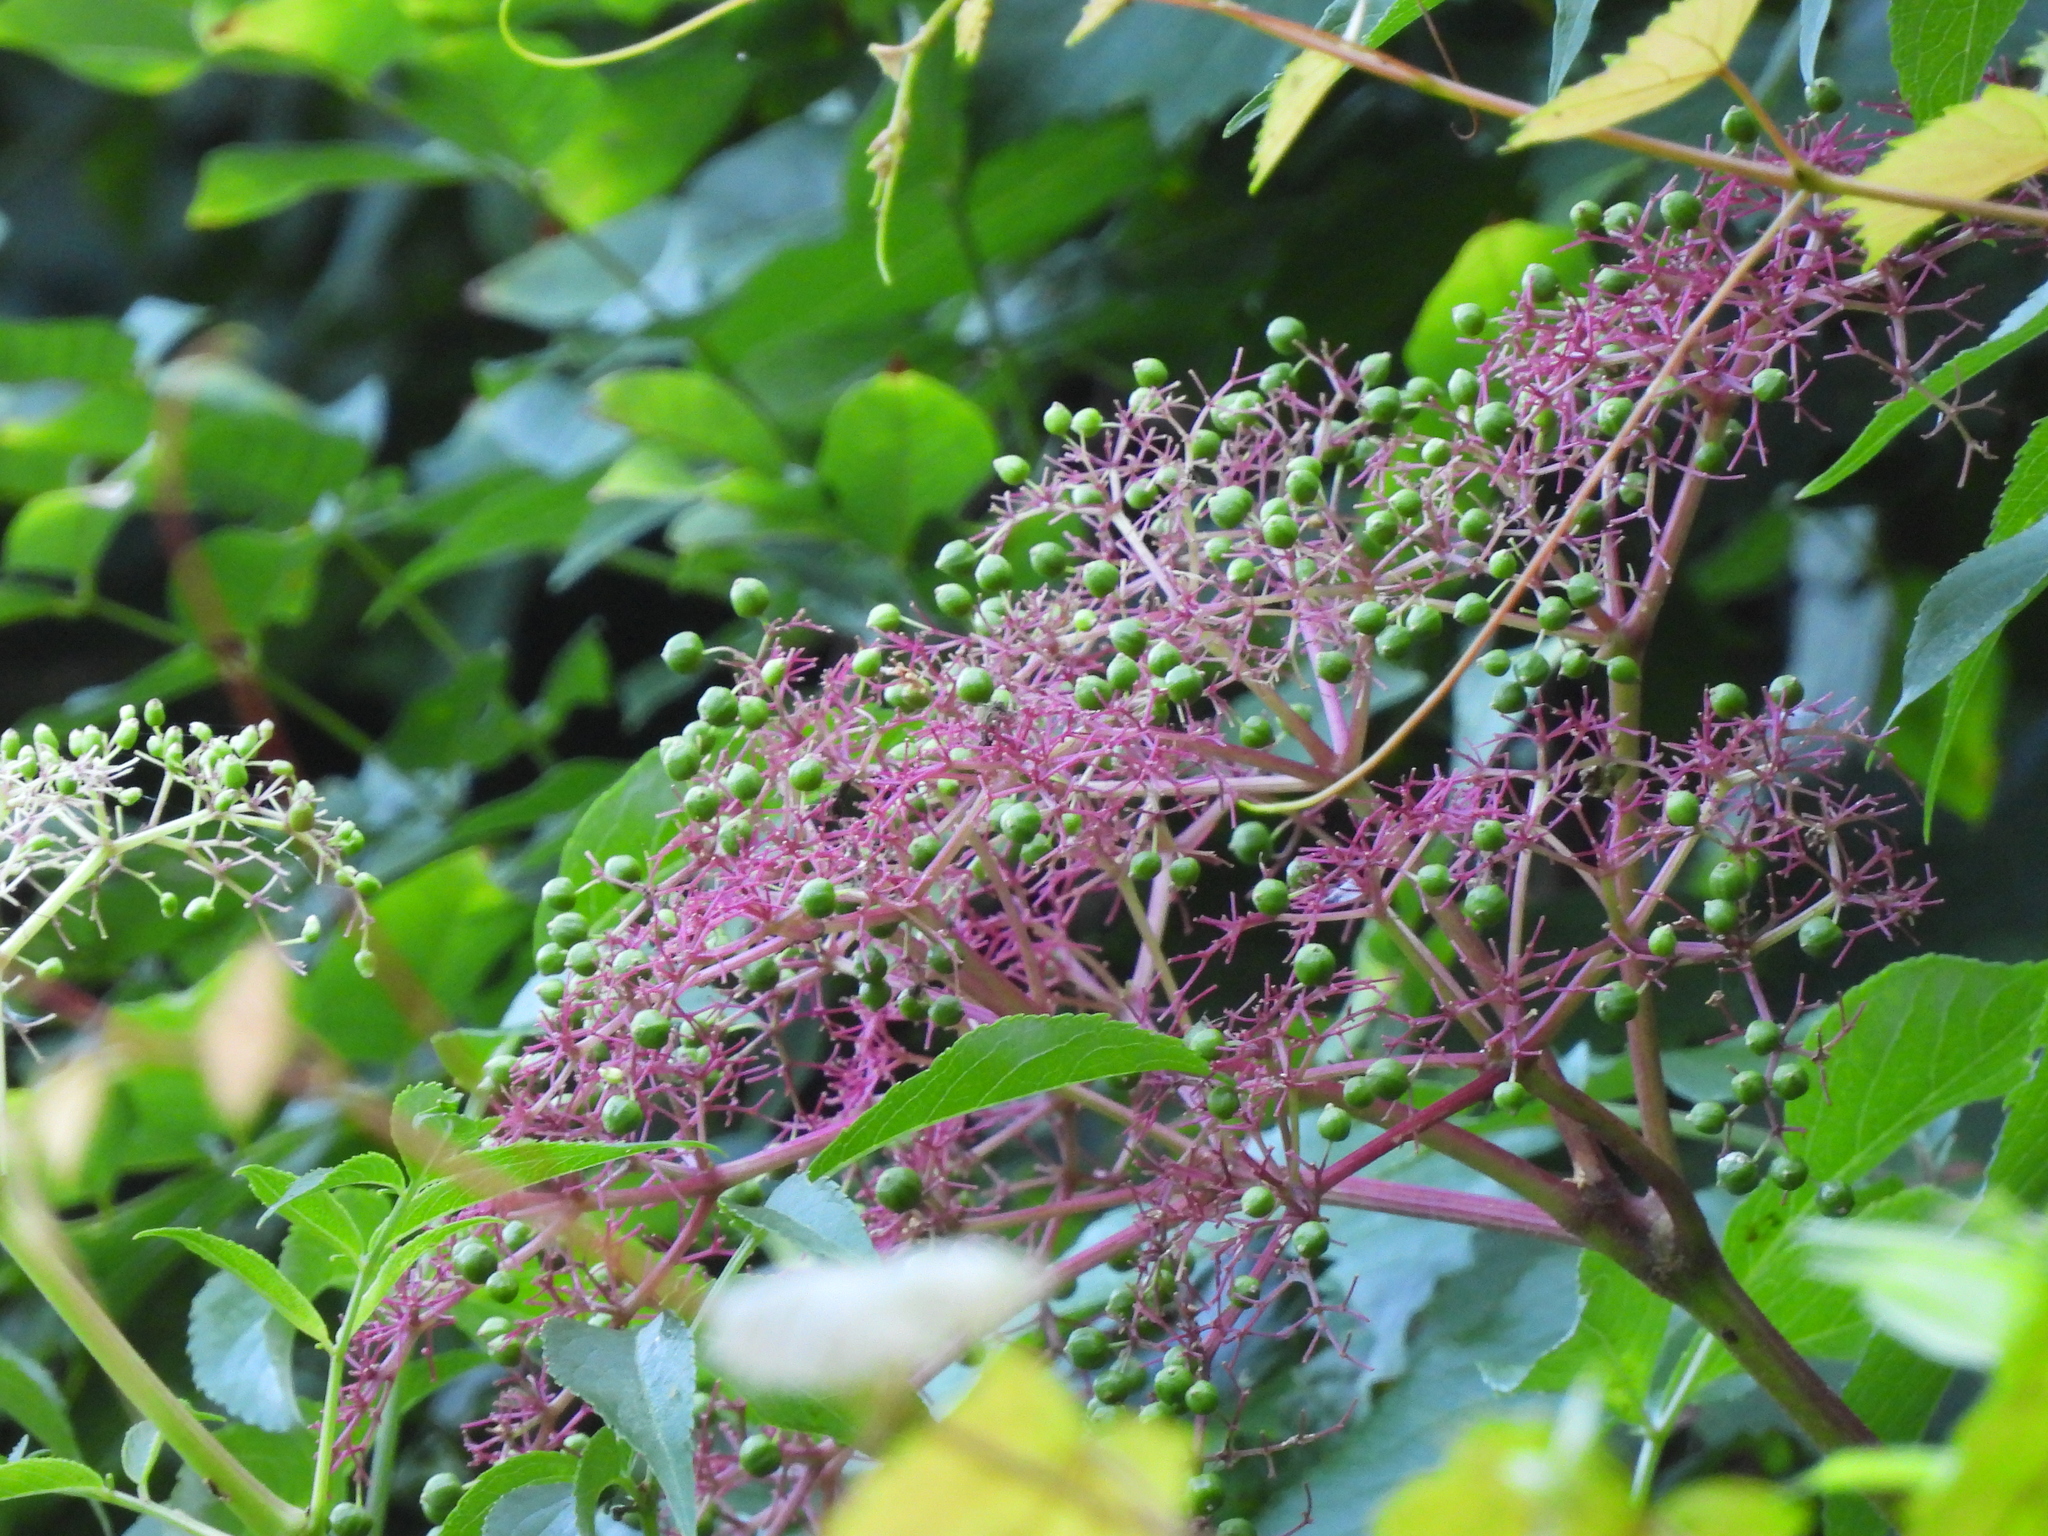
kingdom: Plantae
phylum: Tracheophyta
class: Magnoliopsida
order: Dipsacales
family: Viburnaceae
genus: Sambucus
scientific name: Sambucus canadensis
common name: American elder
